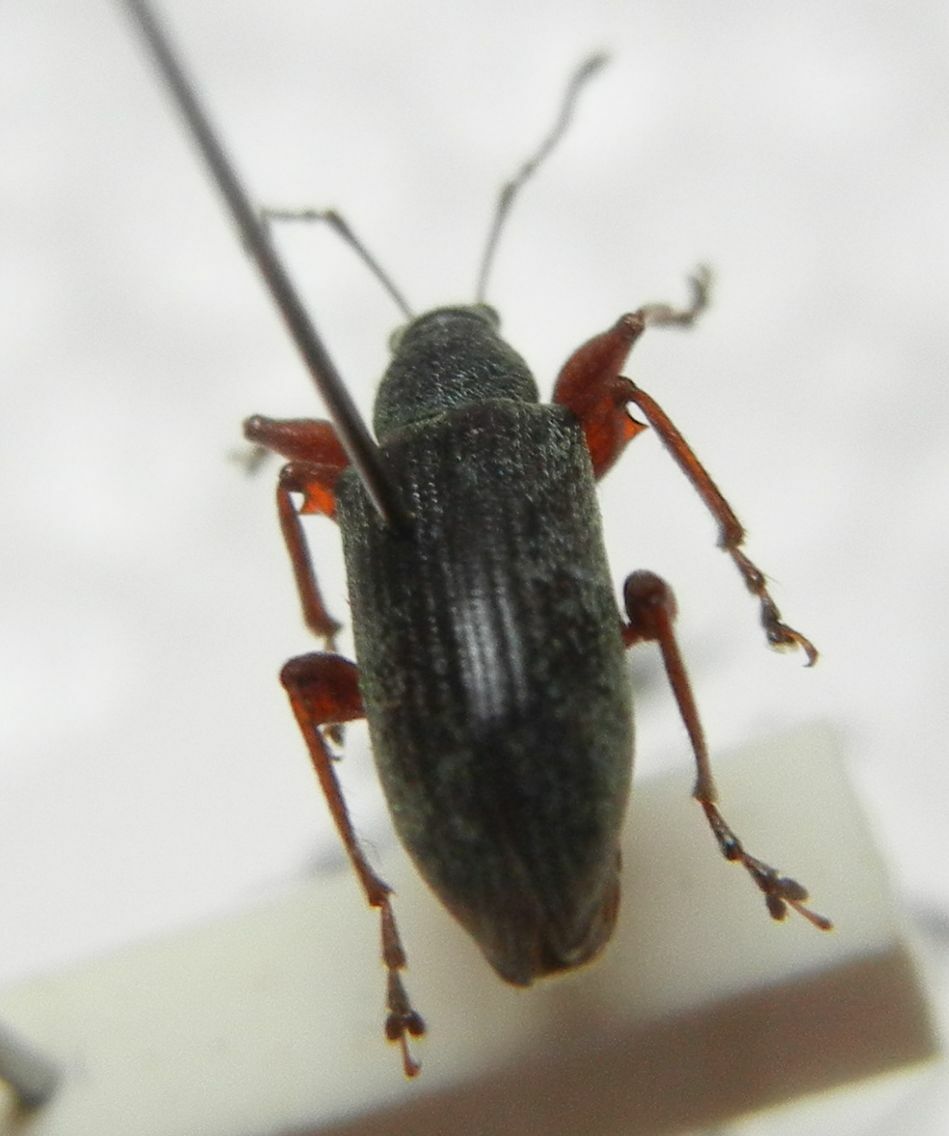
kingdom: Animalia
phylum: Arthropoda
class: Insecta
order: Coleoptera
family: Curculionidae
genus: Phyllobius
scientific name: Phyllobius glaucus
